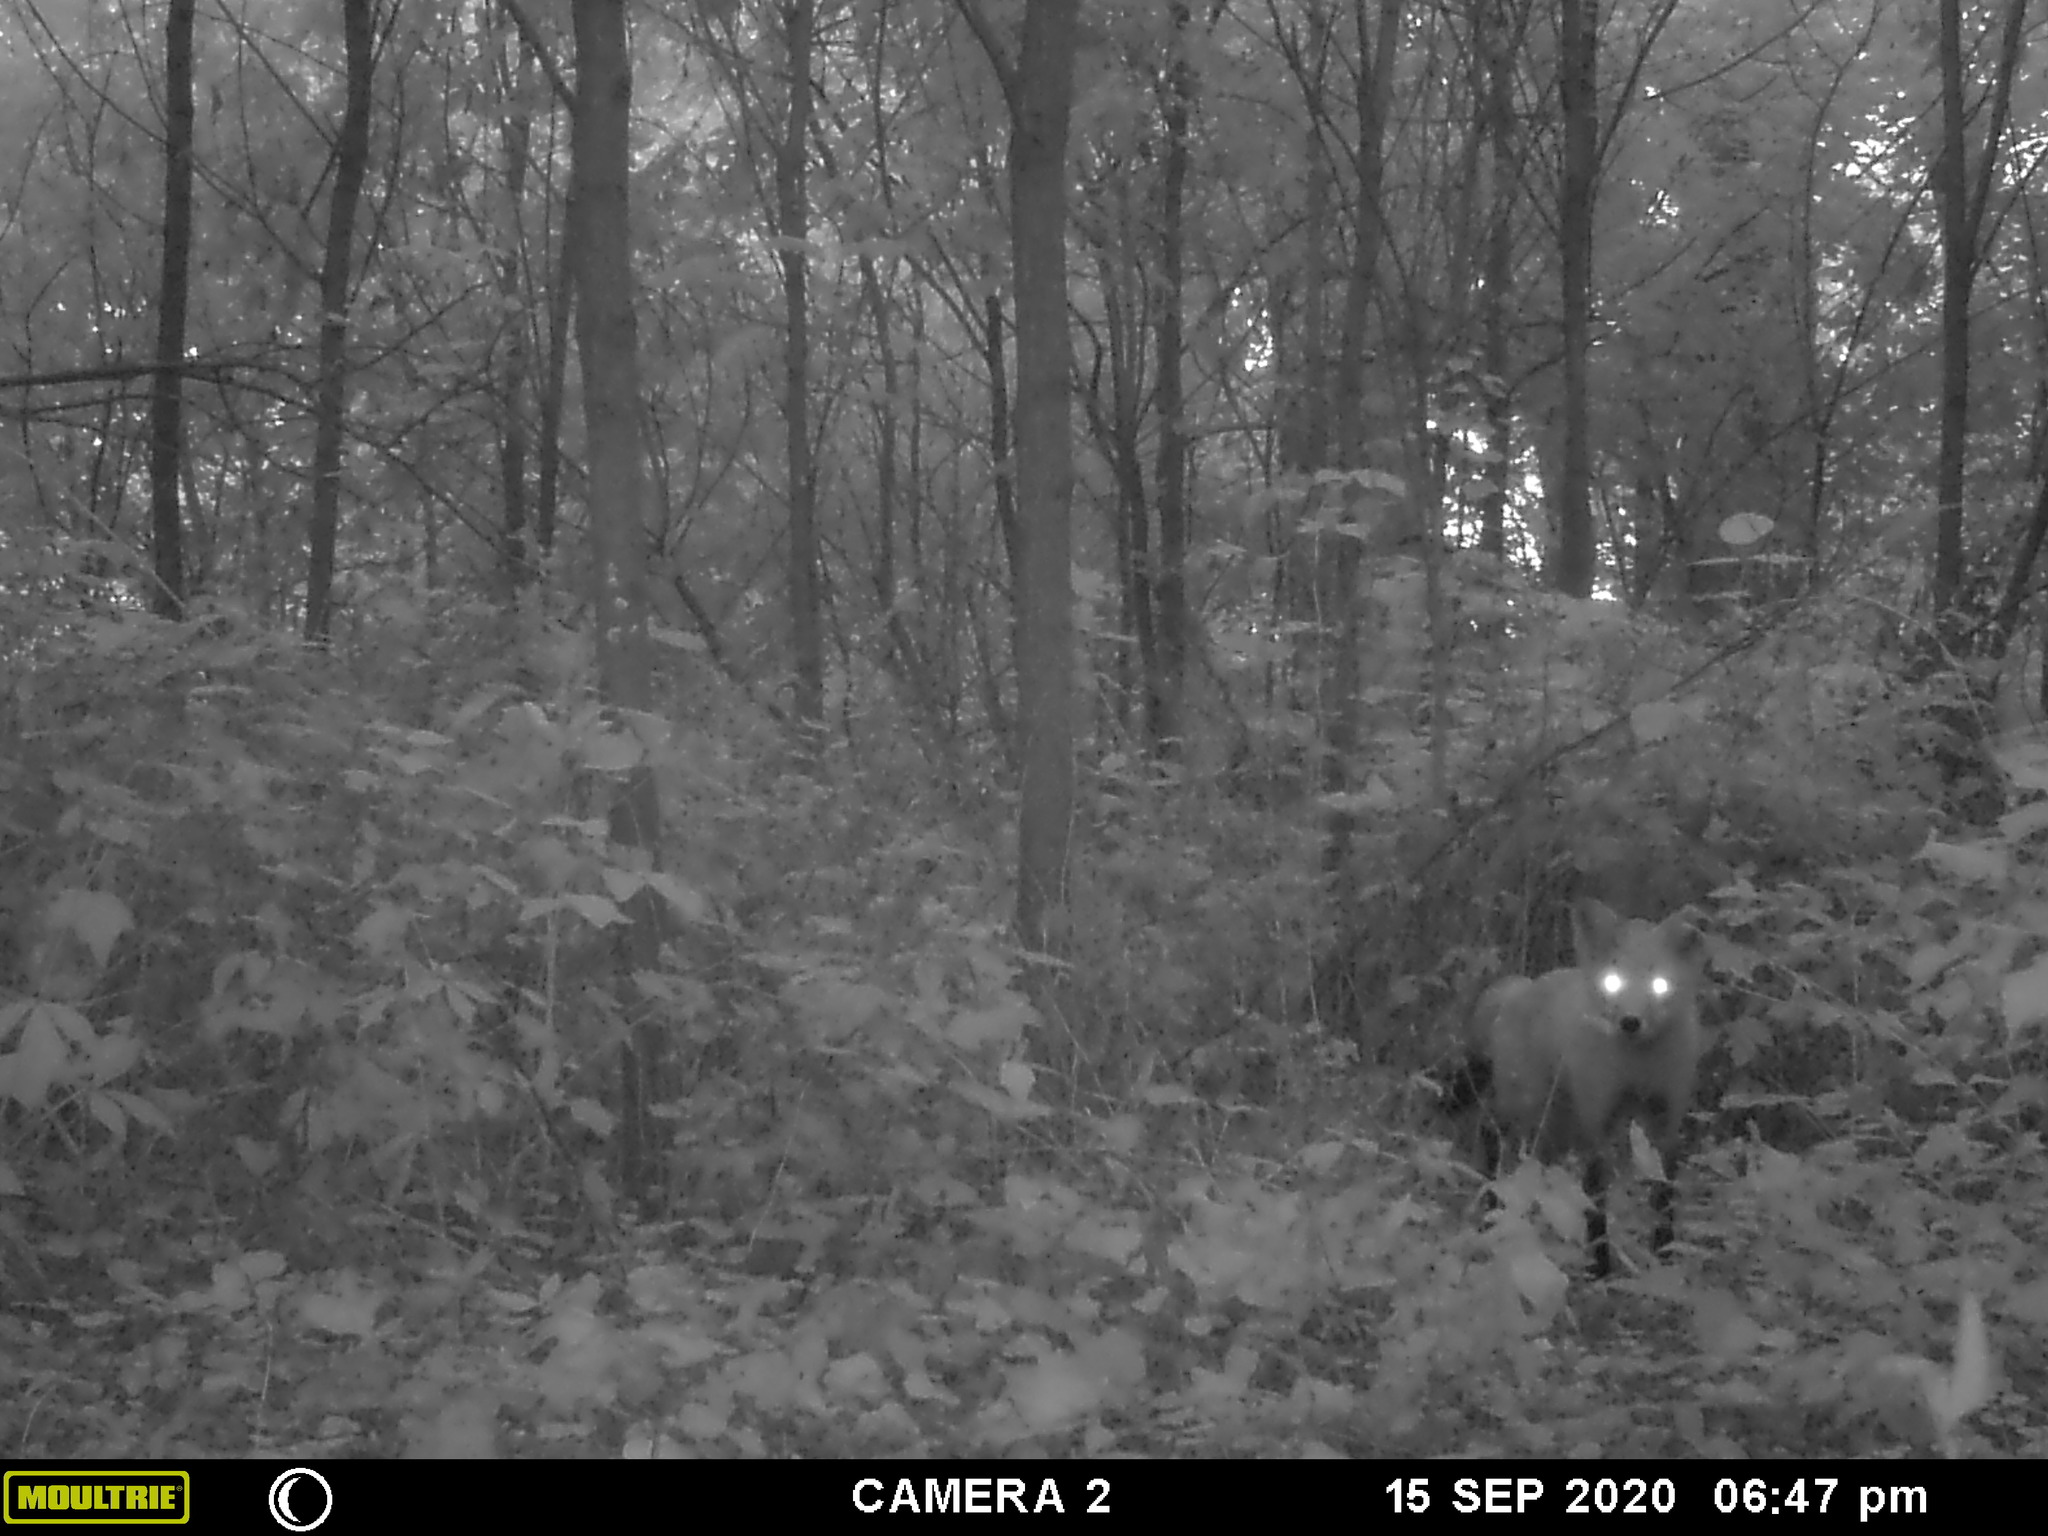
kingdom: Animalia
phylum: Chordata
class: Mammalia
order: Carnivora
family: Canidae
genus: Vulpes
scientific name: Vulpes vulpes
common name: Red fox
